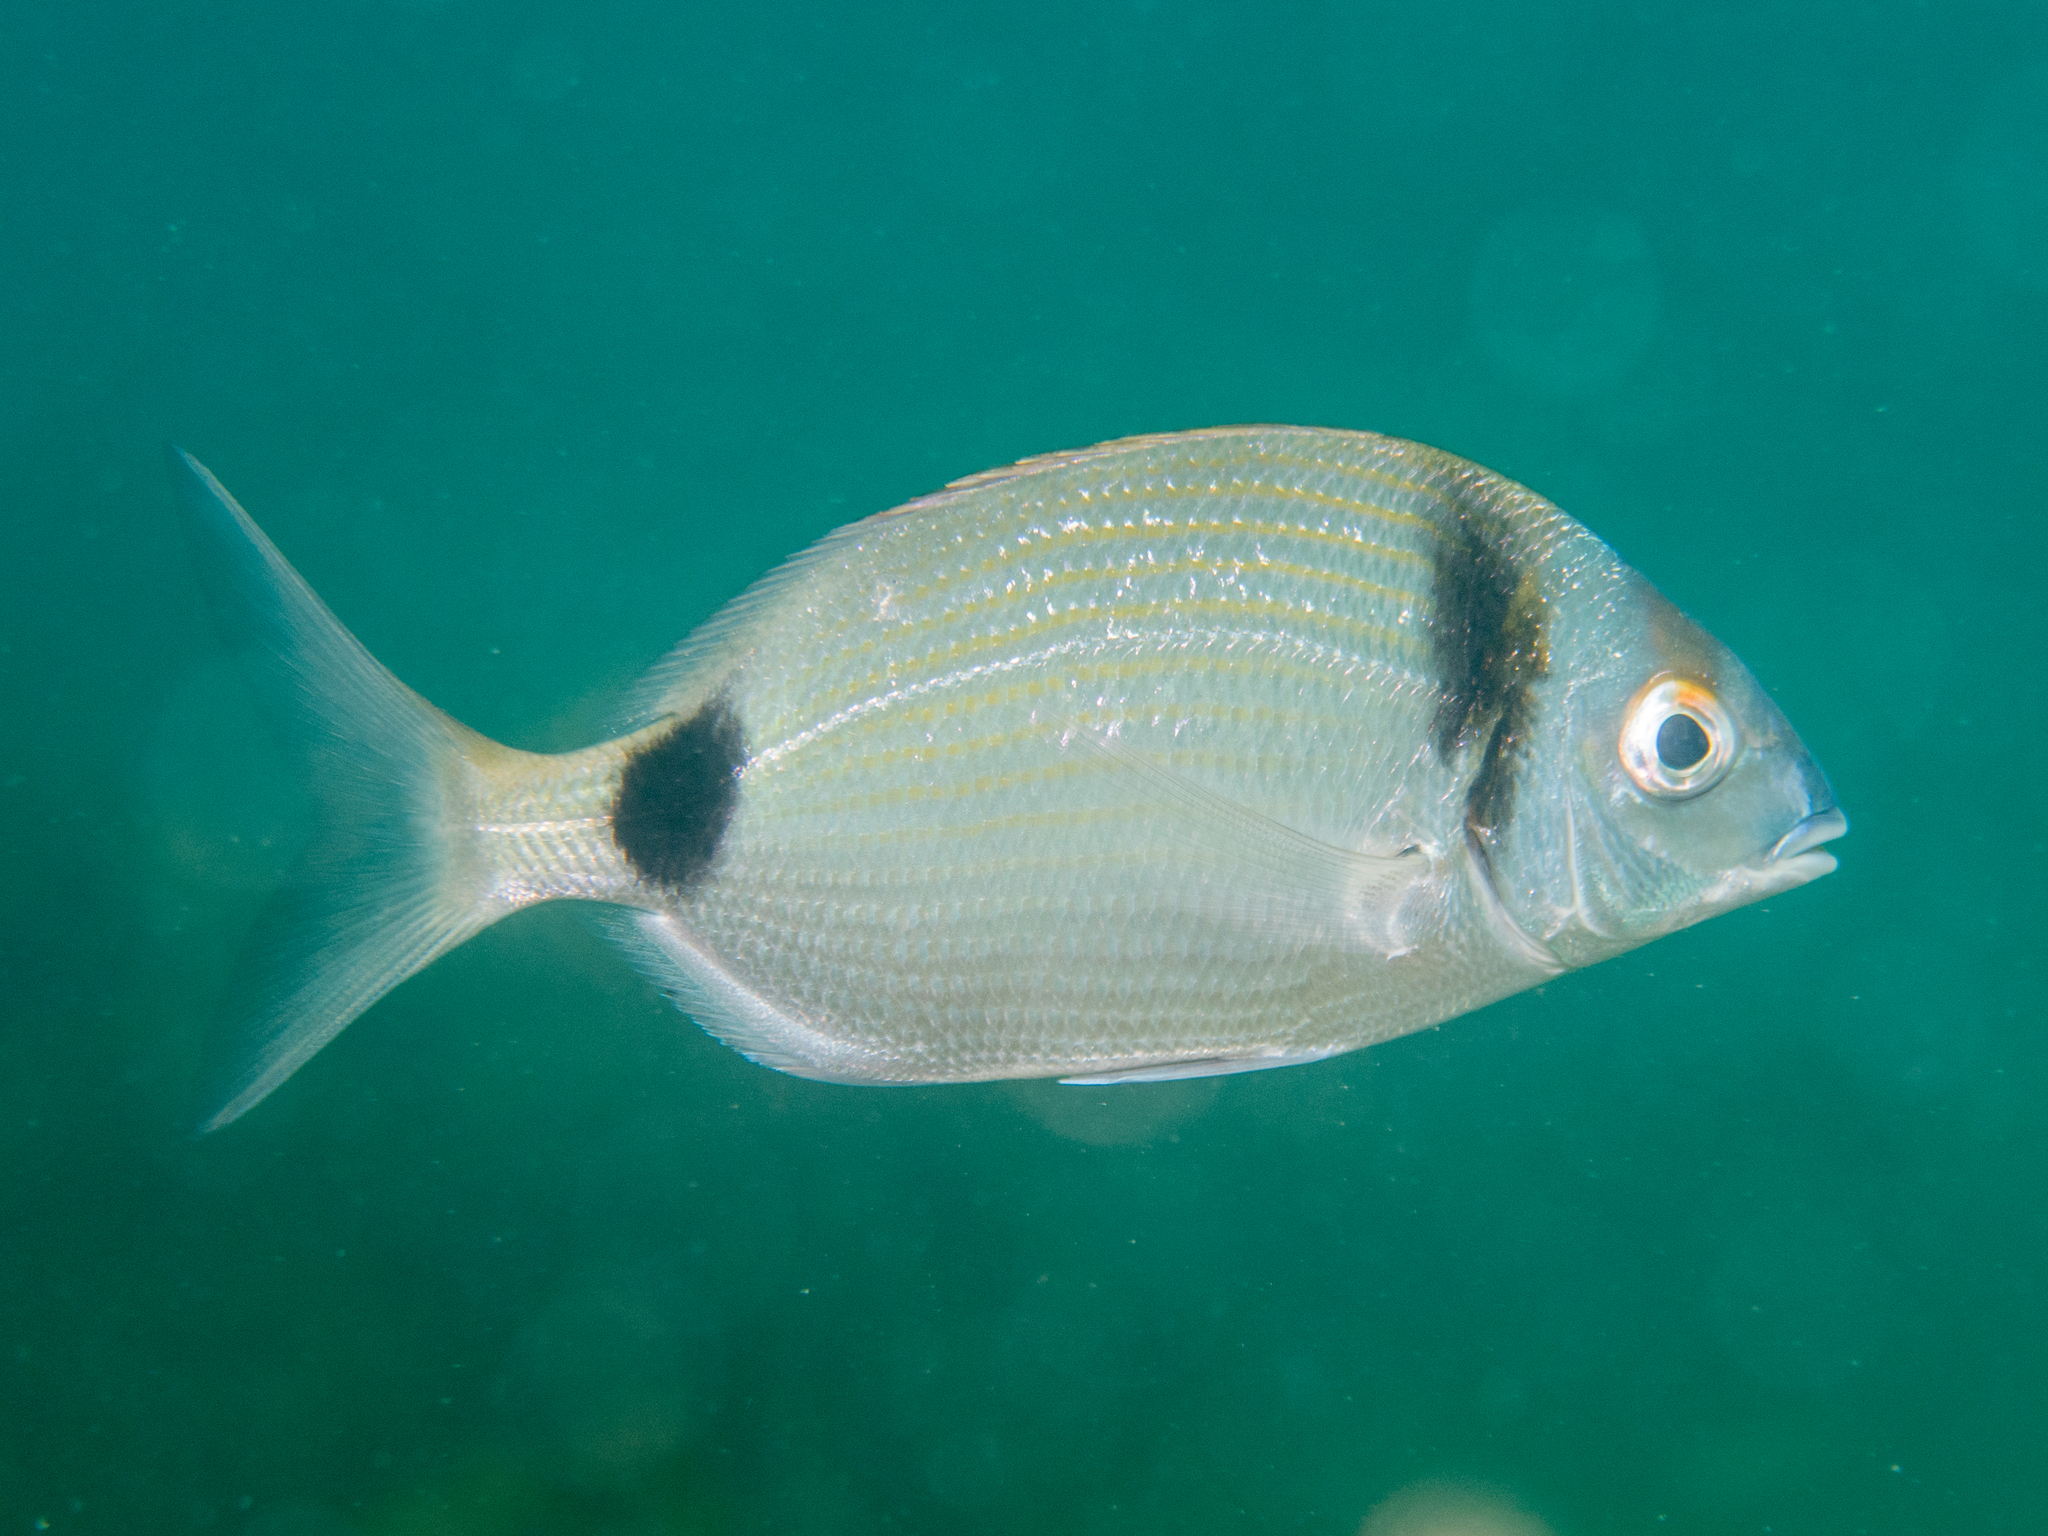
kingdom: Animalia
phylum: Chordata
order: Perciformes
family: Sparidae
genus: Diplodus
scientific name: Diplodus vulgaris
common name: Common two-banded seabream
